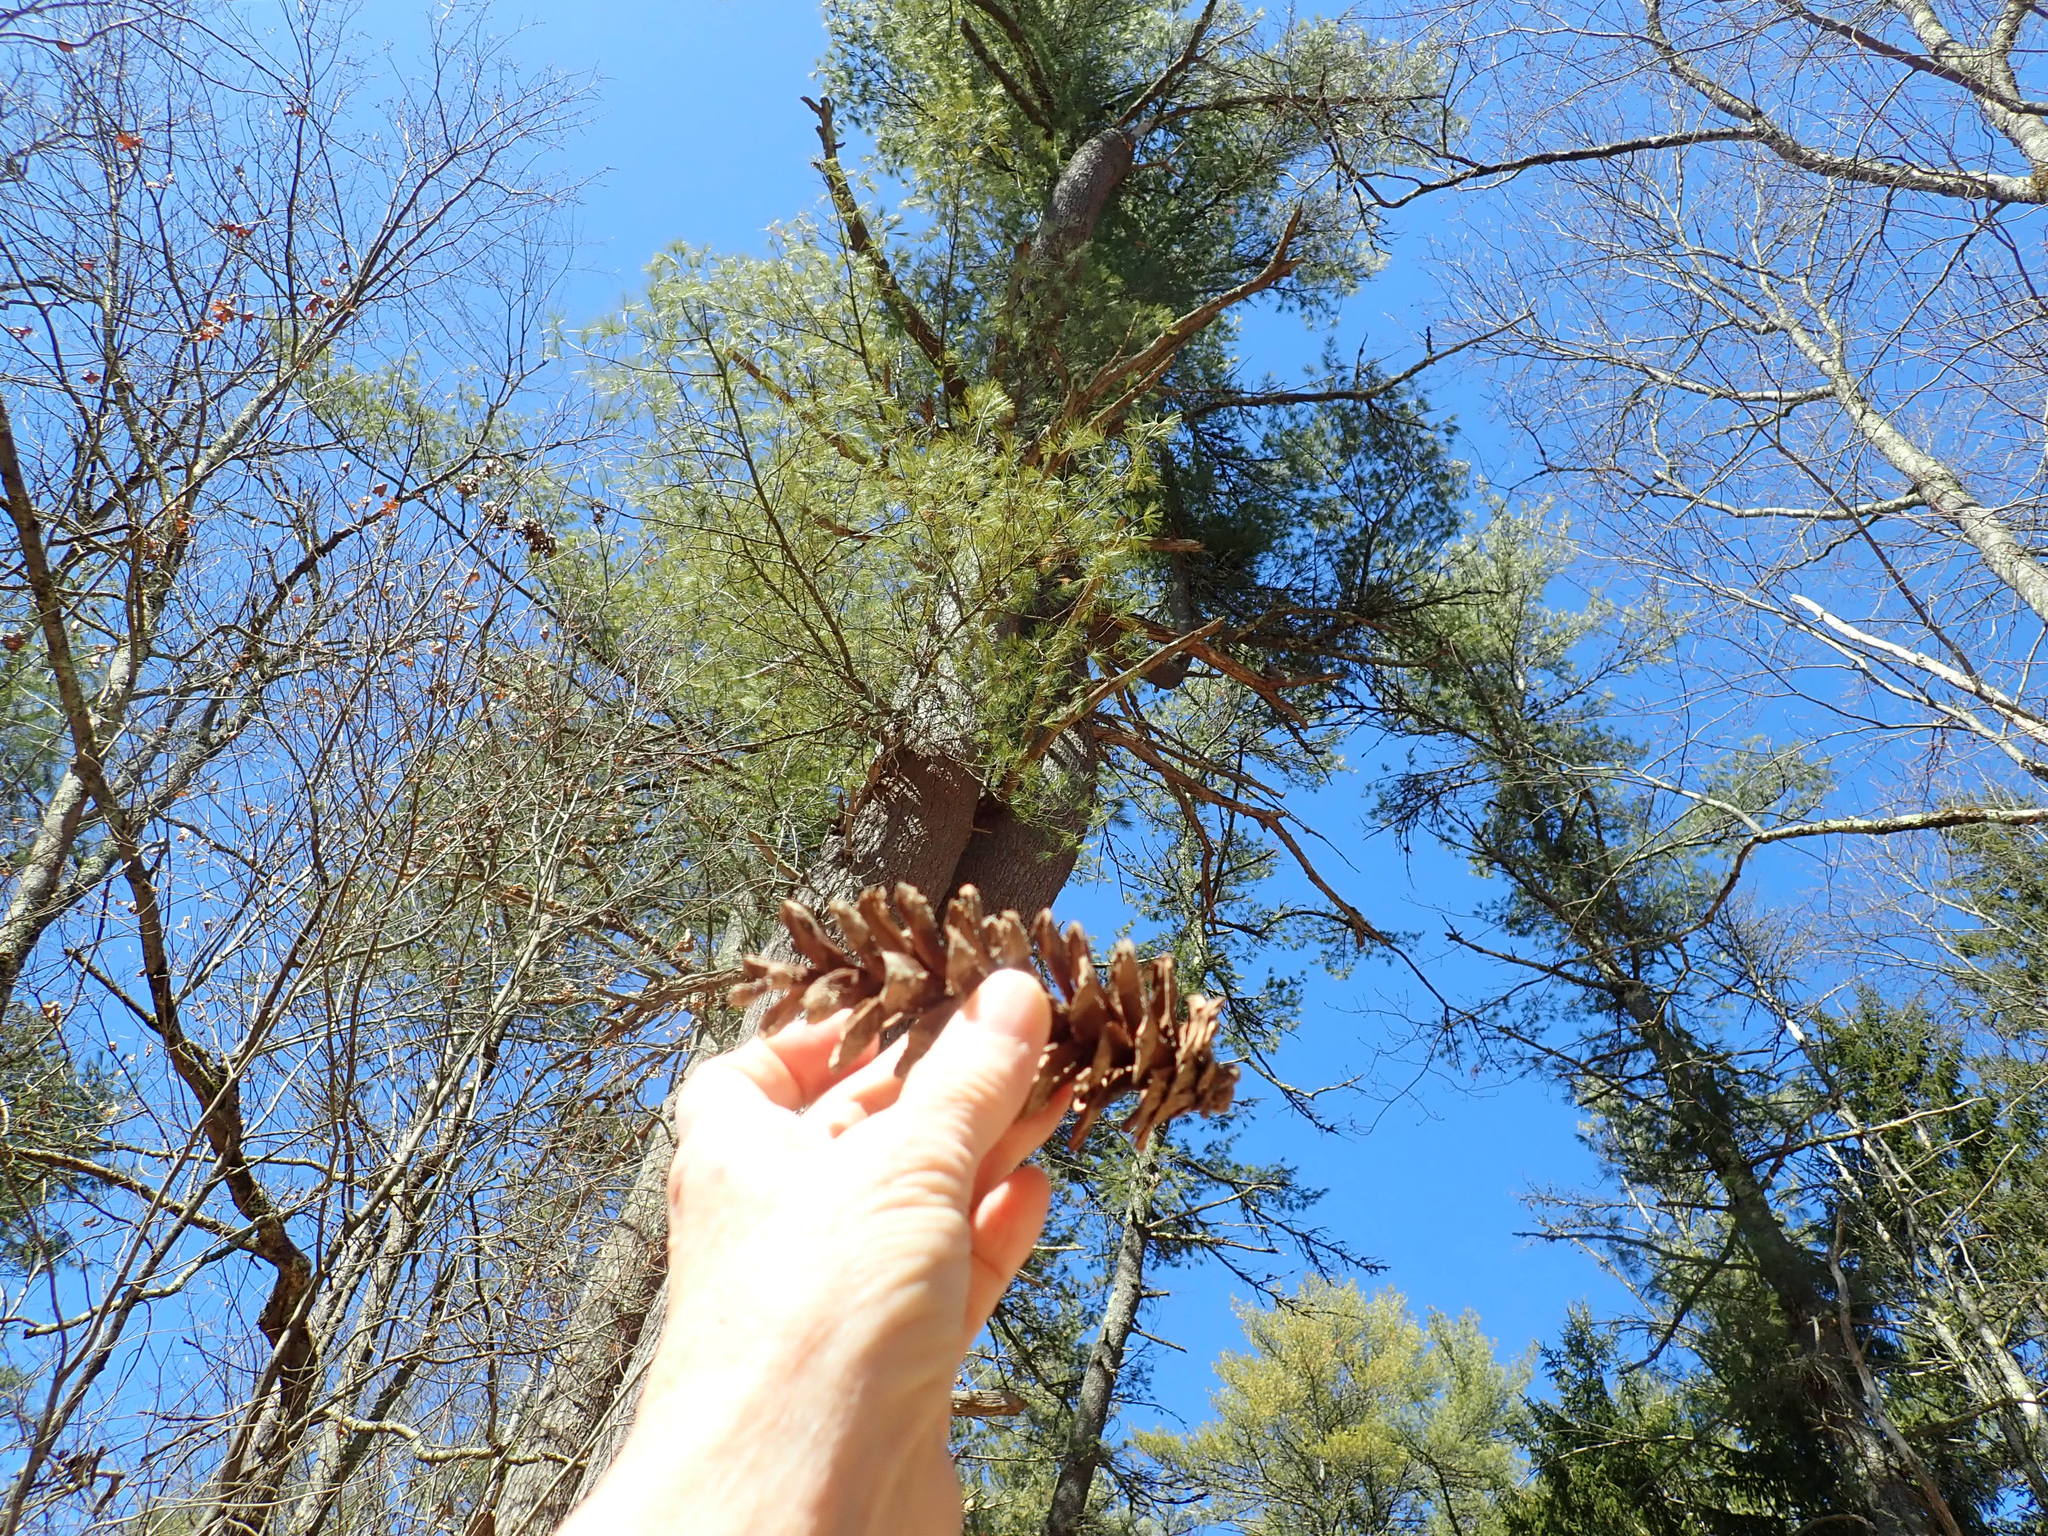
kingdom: Plantae
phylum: Tracheophyta
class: Pinopsida
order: Pinales
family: Pinaceae
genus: Pinus
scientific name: Pinus strobus
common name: Weymouth pine
